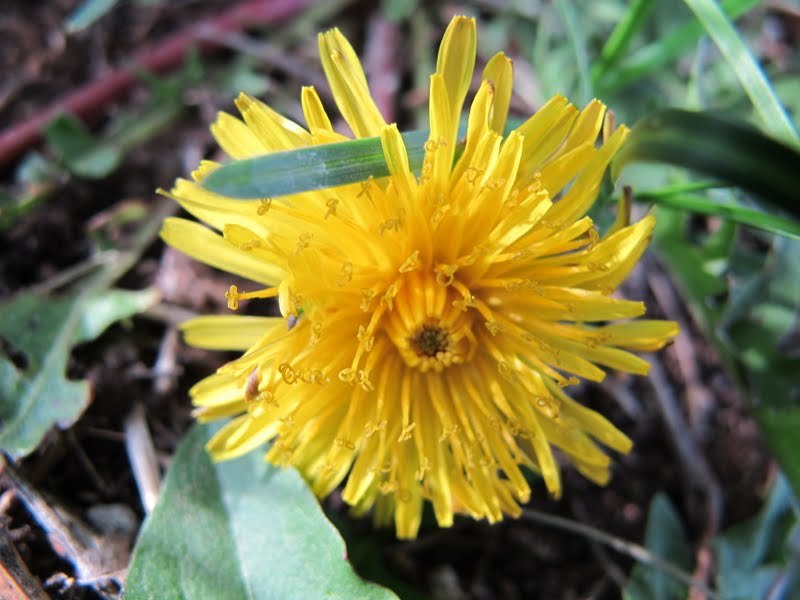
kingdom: Plantae
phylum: Tracheophyta
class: Magnoliopsida
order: Asterales
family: Asteraceae
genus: Taraxacum
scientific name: Taraxacum officinale
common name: Common dandelion
